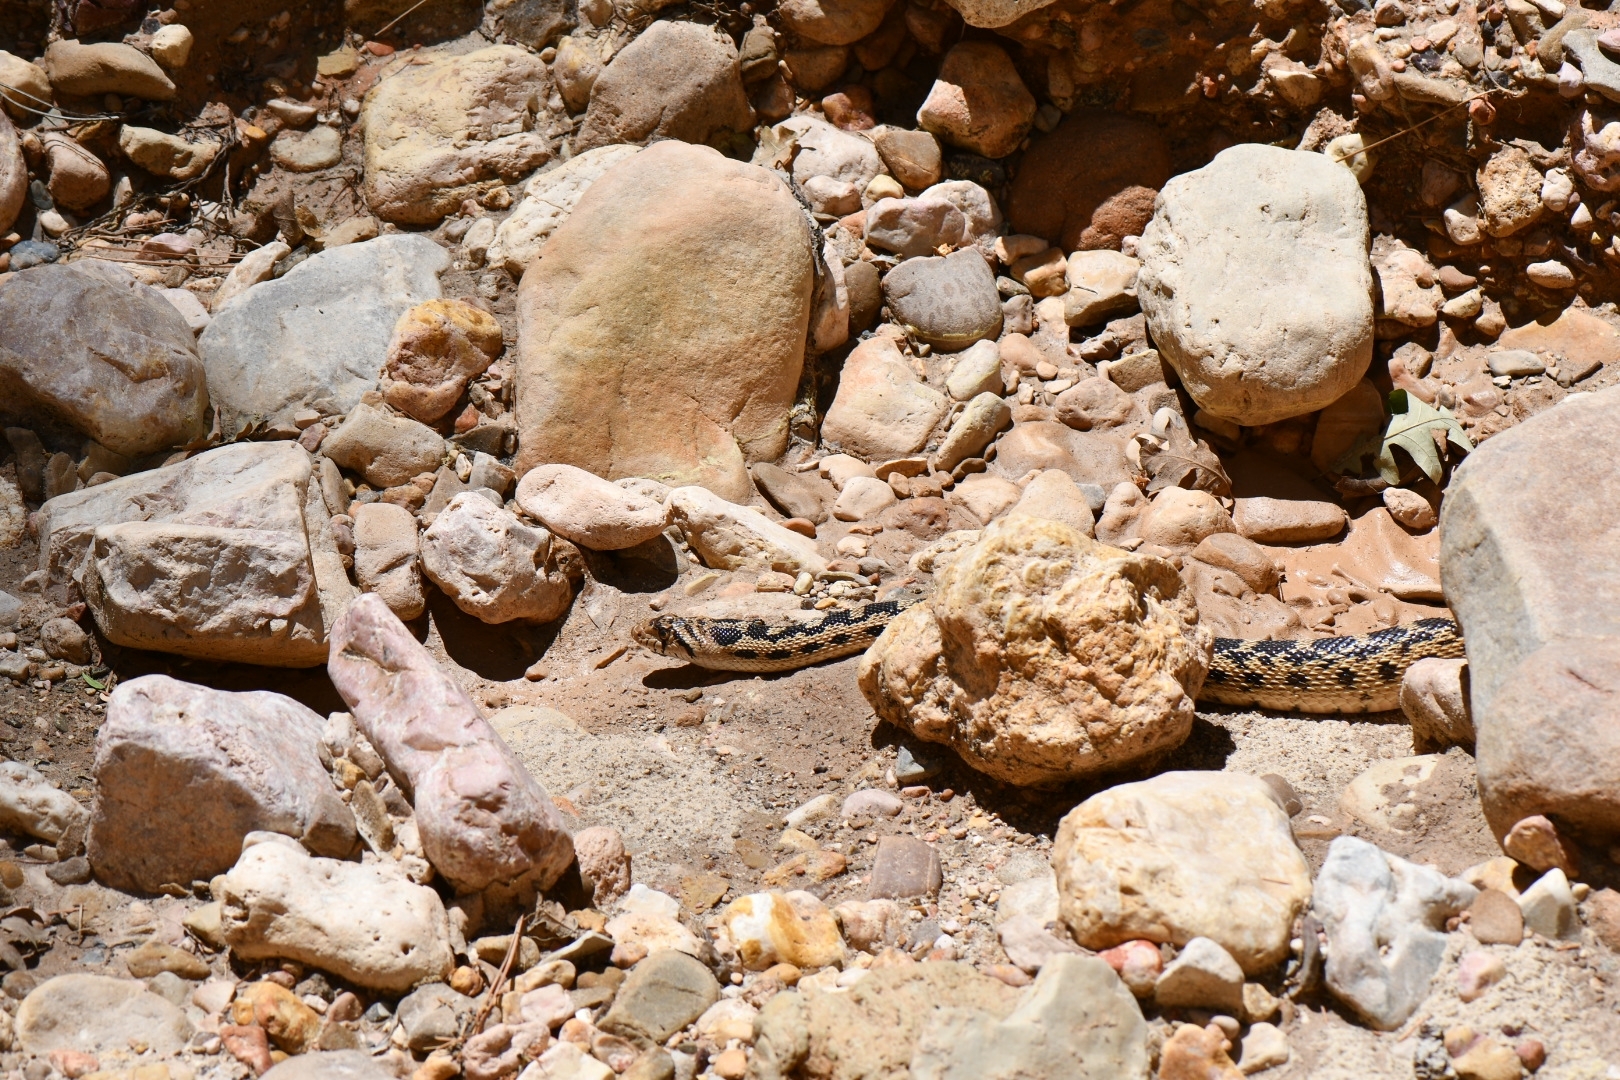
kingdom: Animalia
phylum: Chordata
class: Squamata
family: Colubridae
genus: Pituophis
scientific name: Pituophis catenifer
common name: Gopher snake
